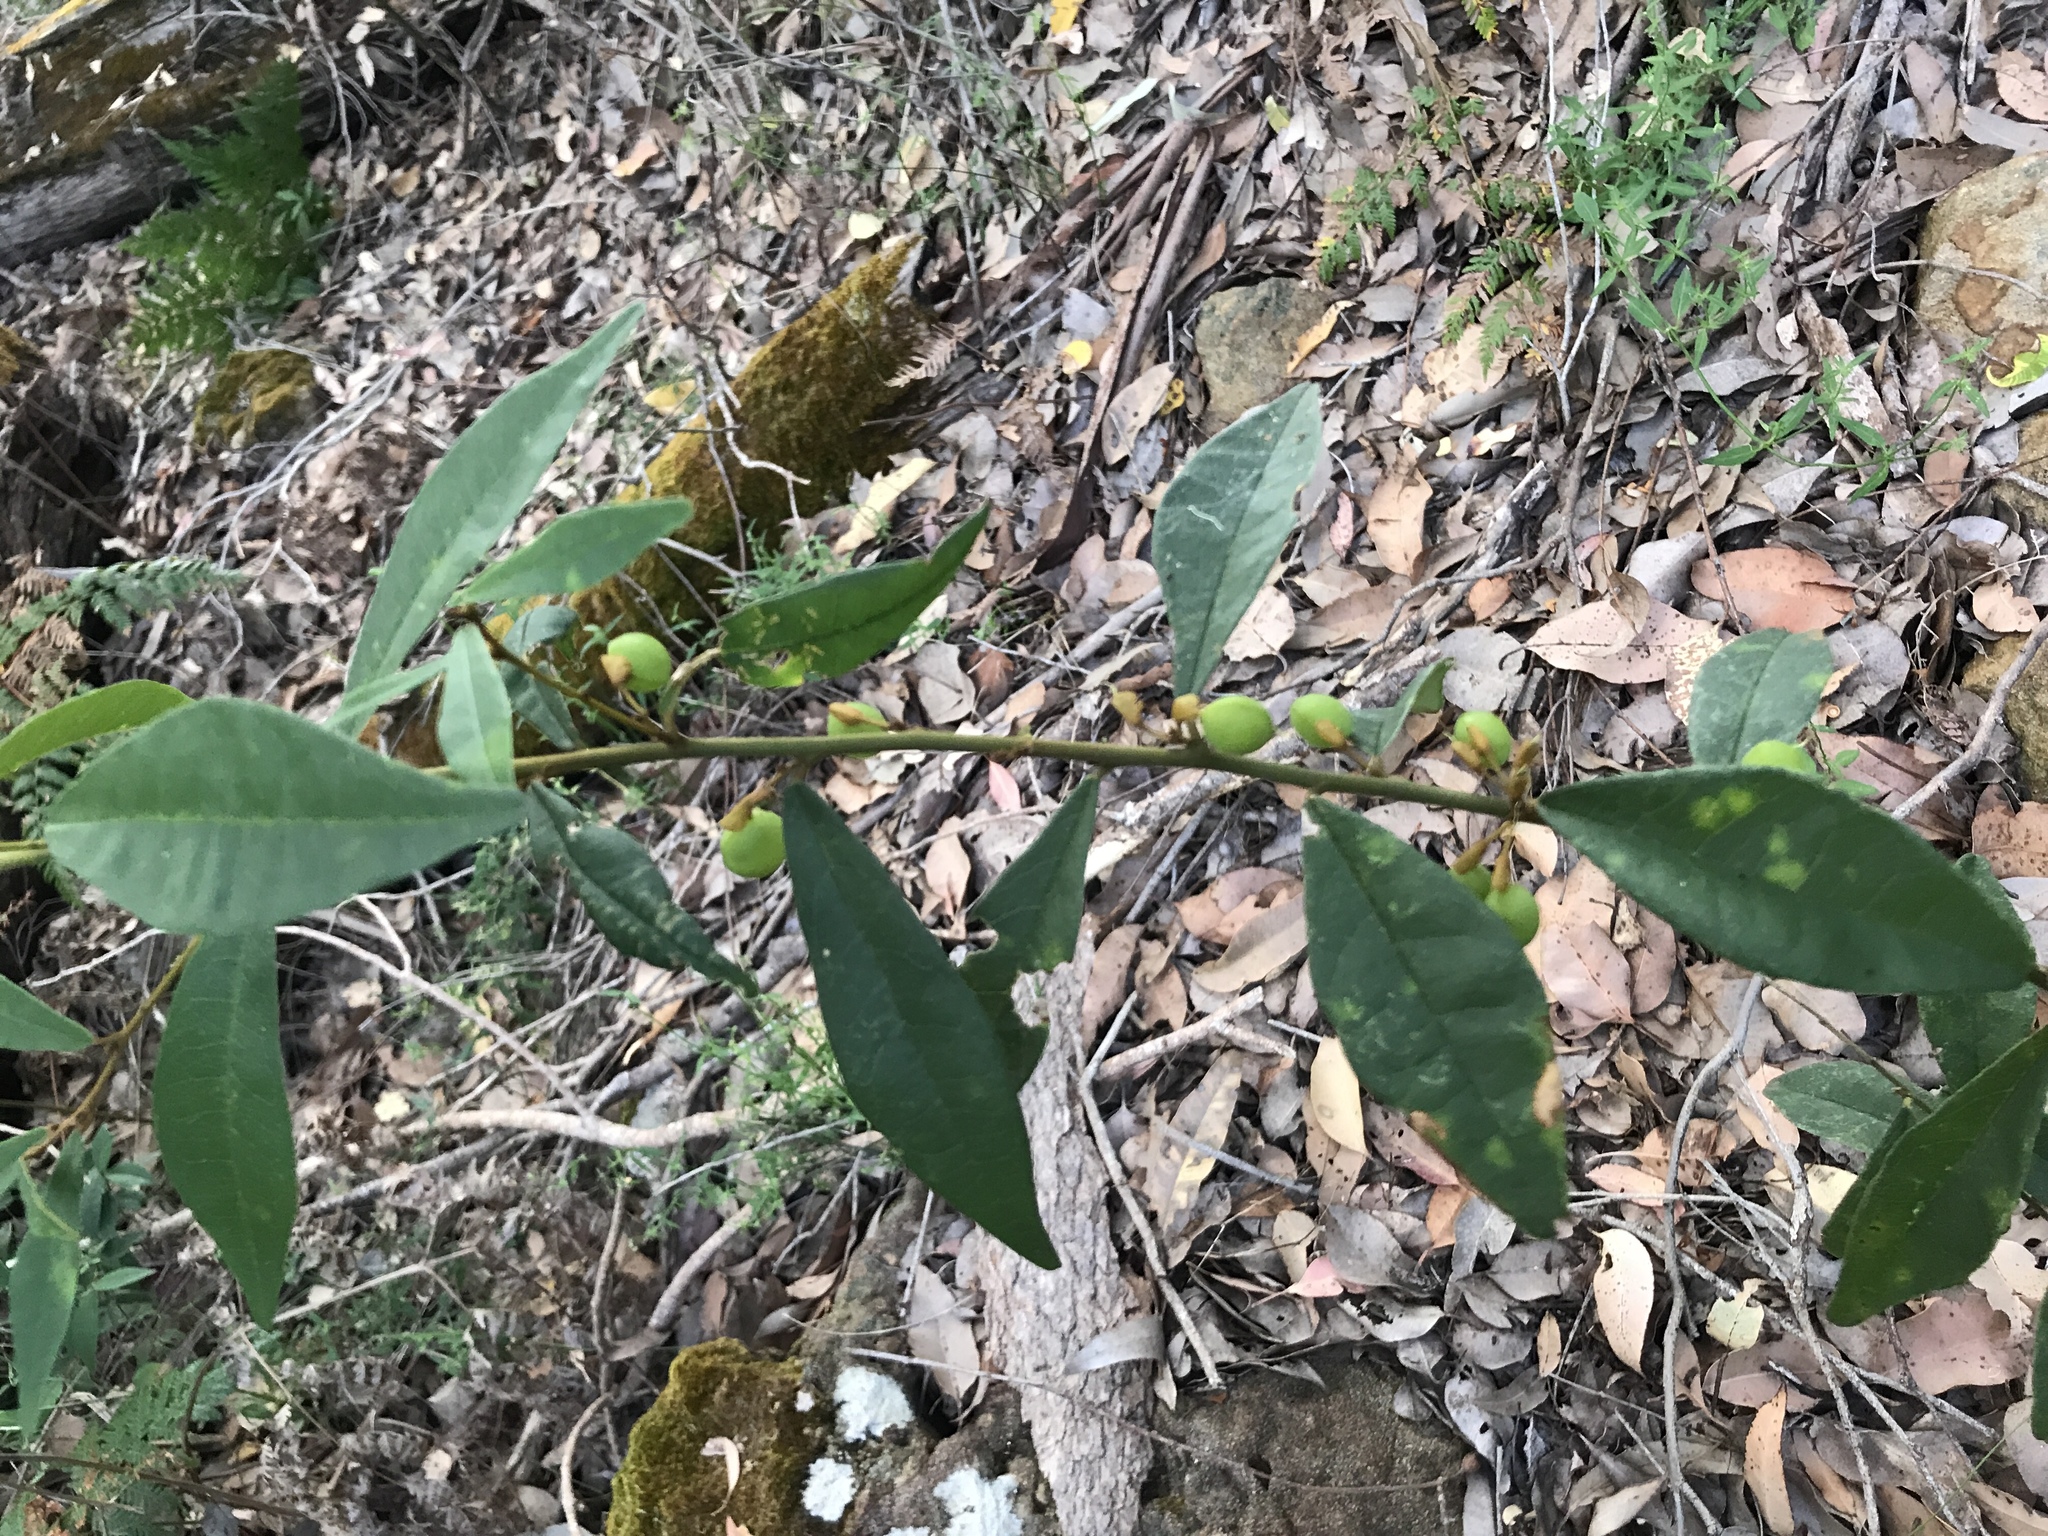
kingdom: Plantae
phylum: Tracheophyta
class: Magnoliopsida
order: Fabales
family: Fabaceae
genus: Hovea
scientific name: Hovea elliptica
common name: Tree hovea
